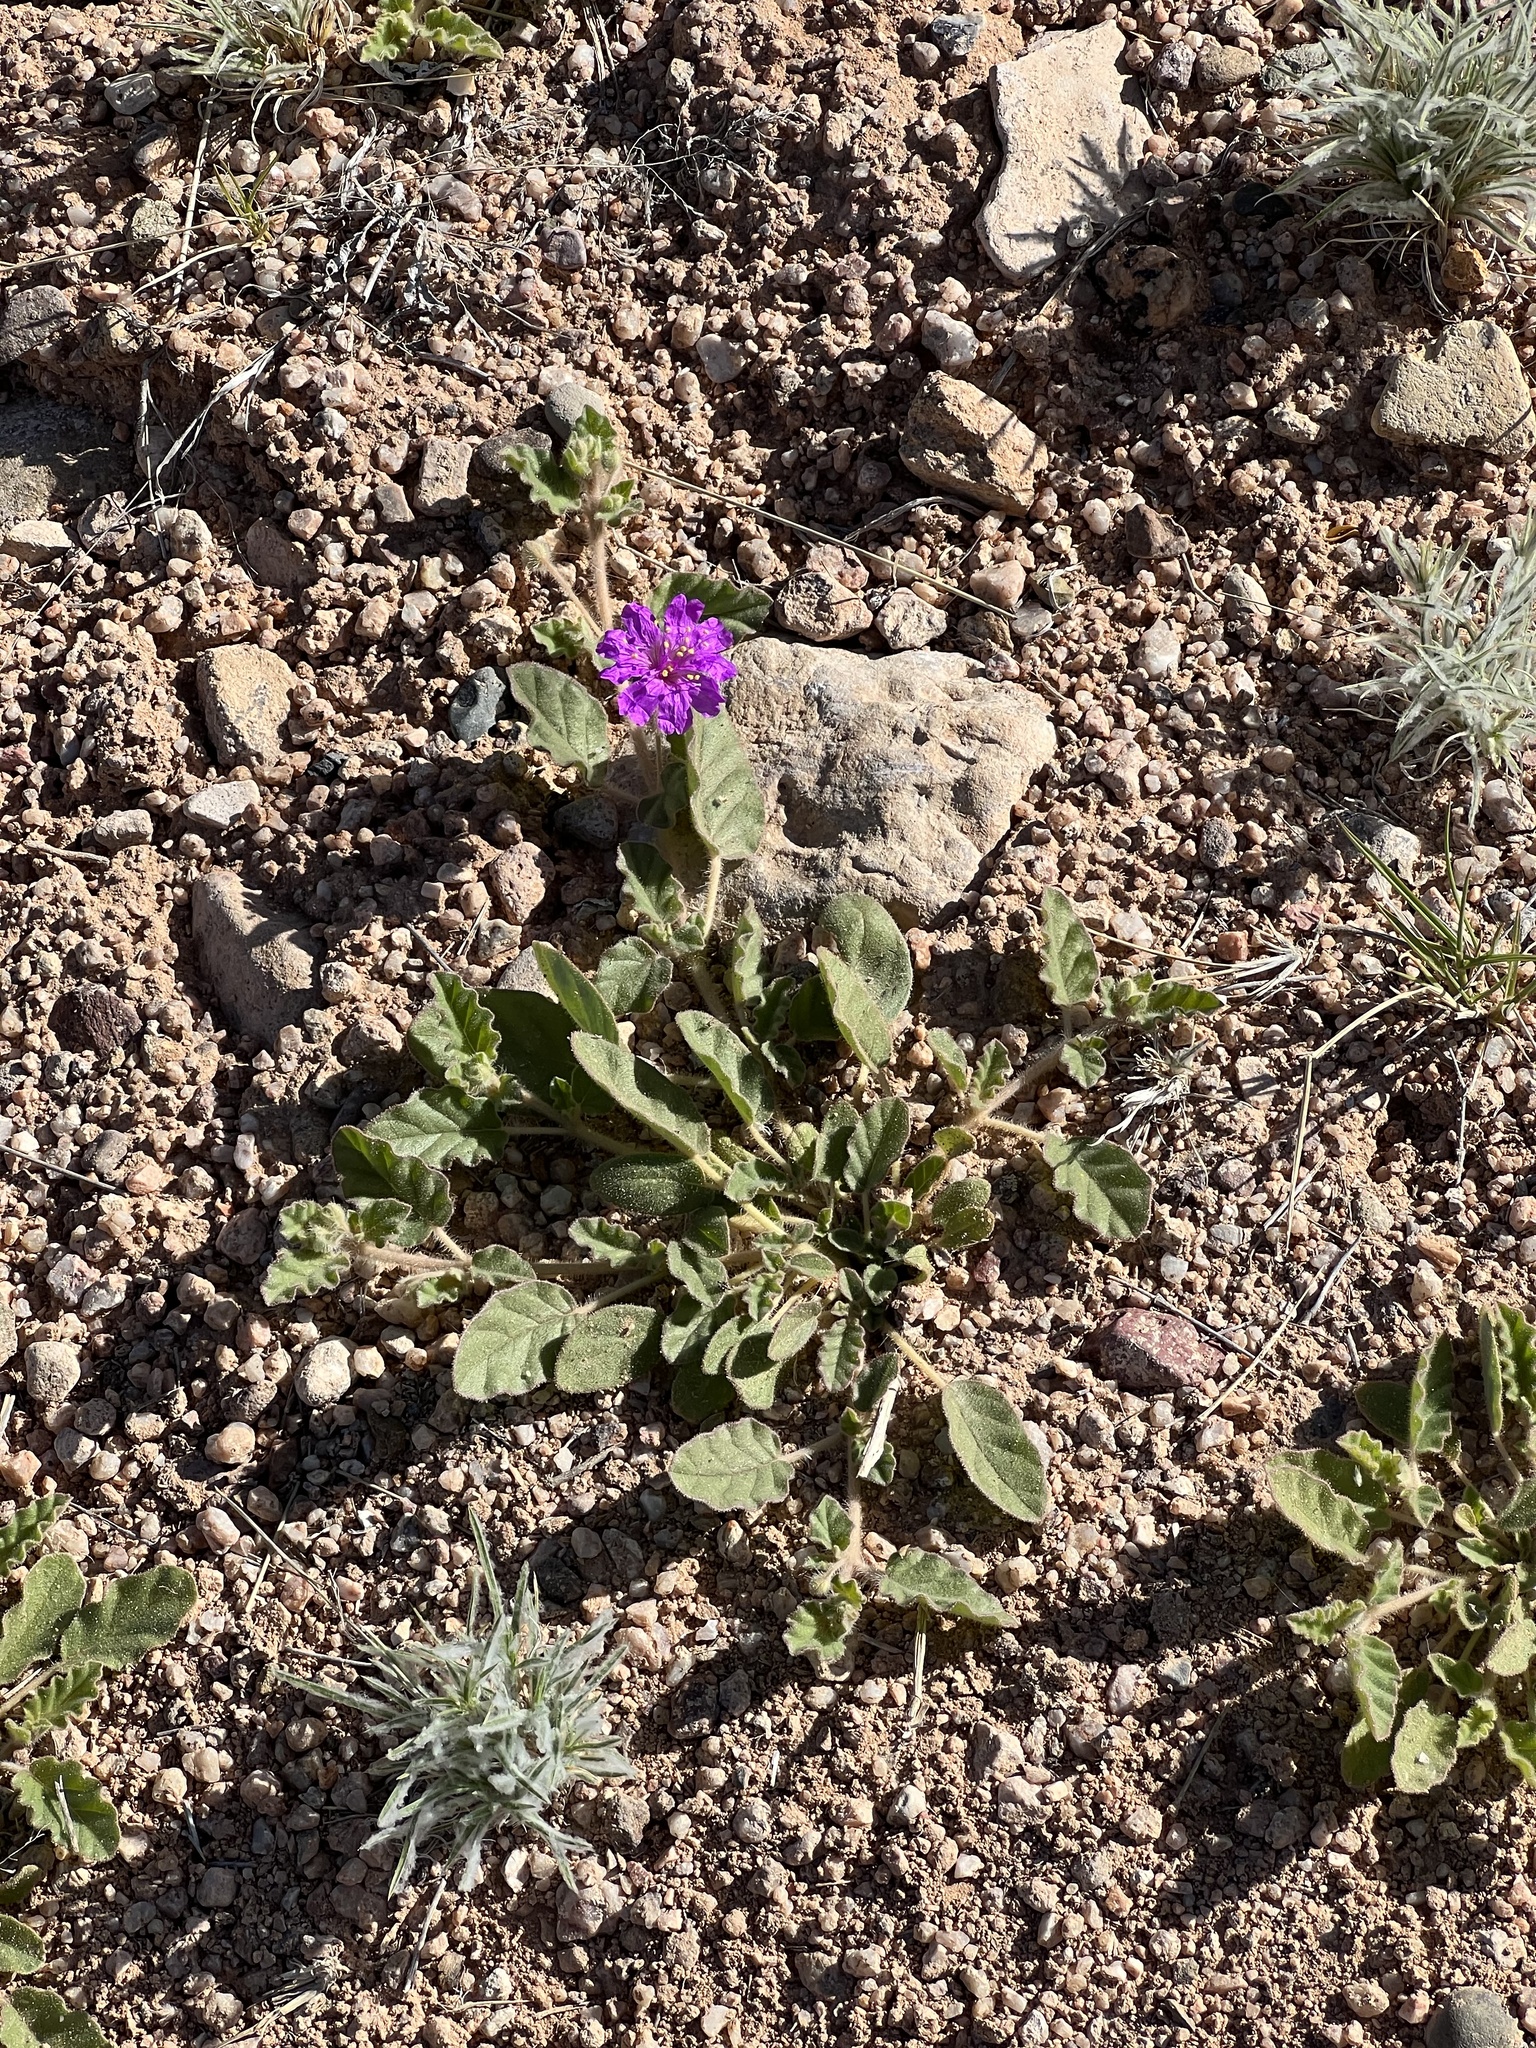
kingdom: Plantae
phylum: Tracheophyta
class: Magnoliopsida
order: Caryophyllales
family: Nyctaginaceae
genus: Allionia
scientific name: Allionia incarnata
